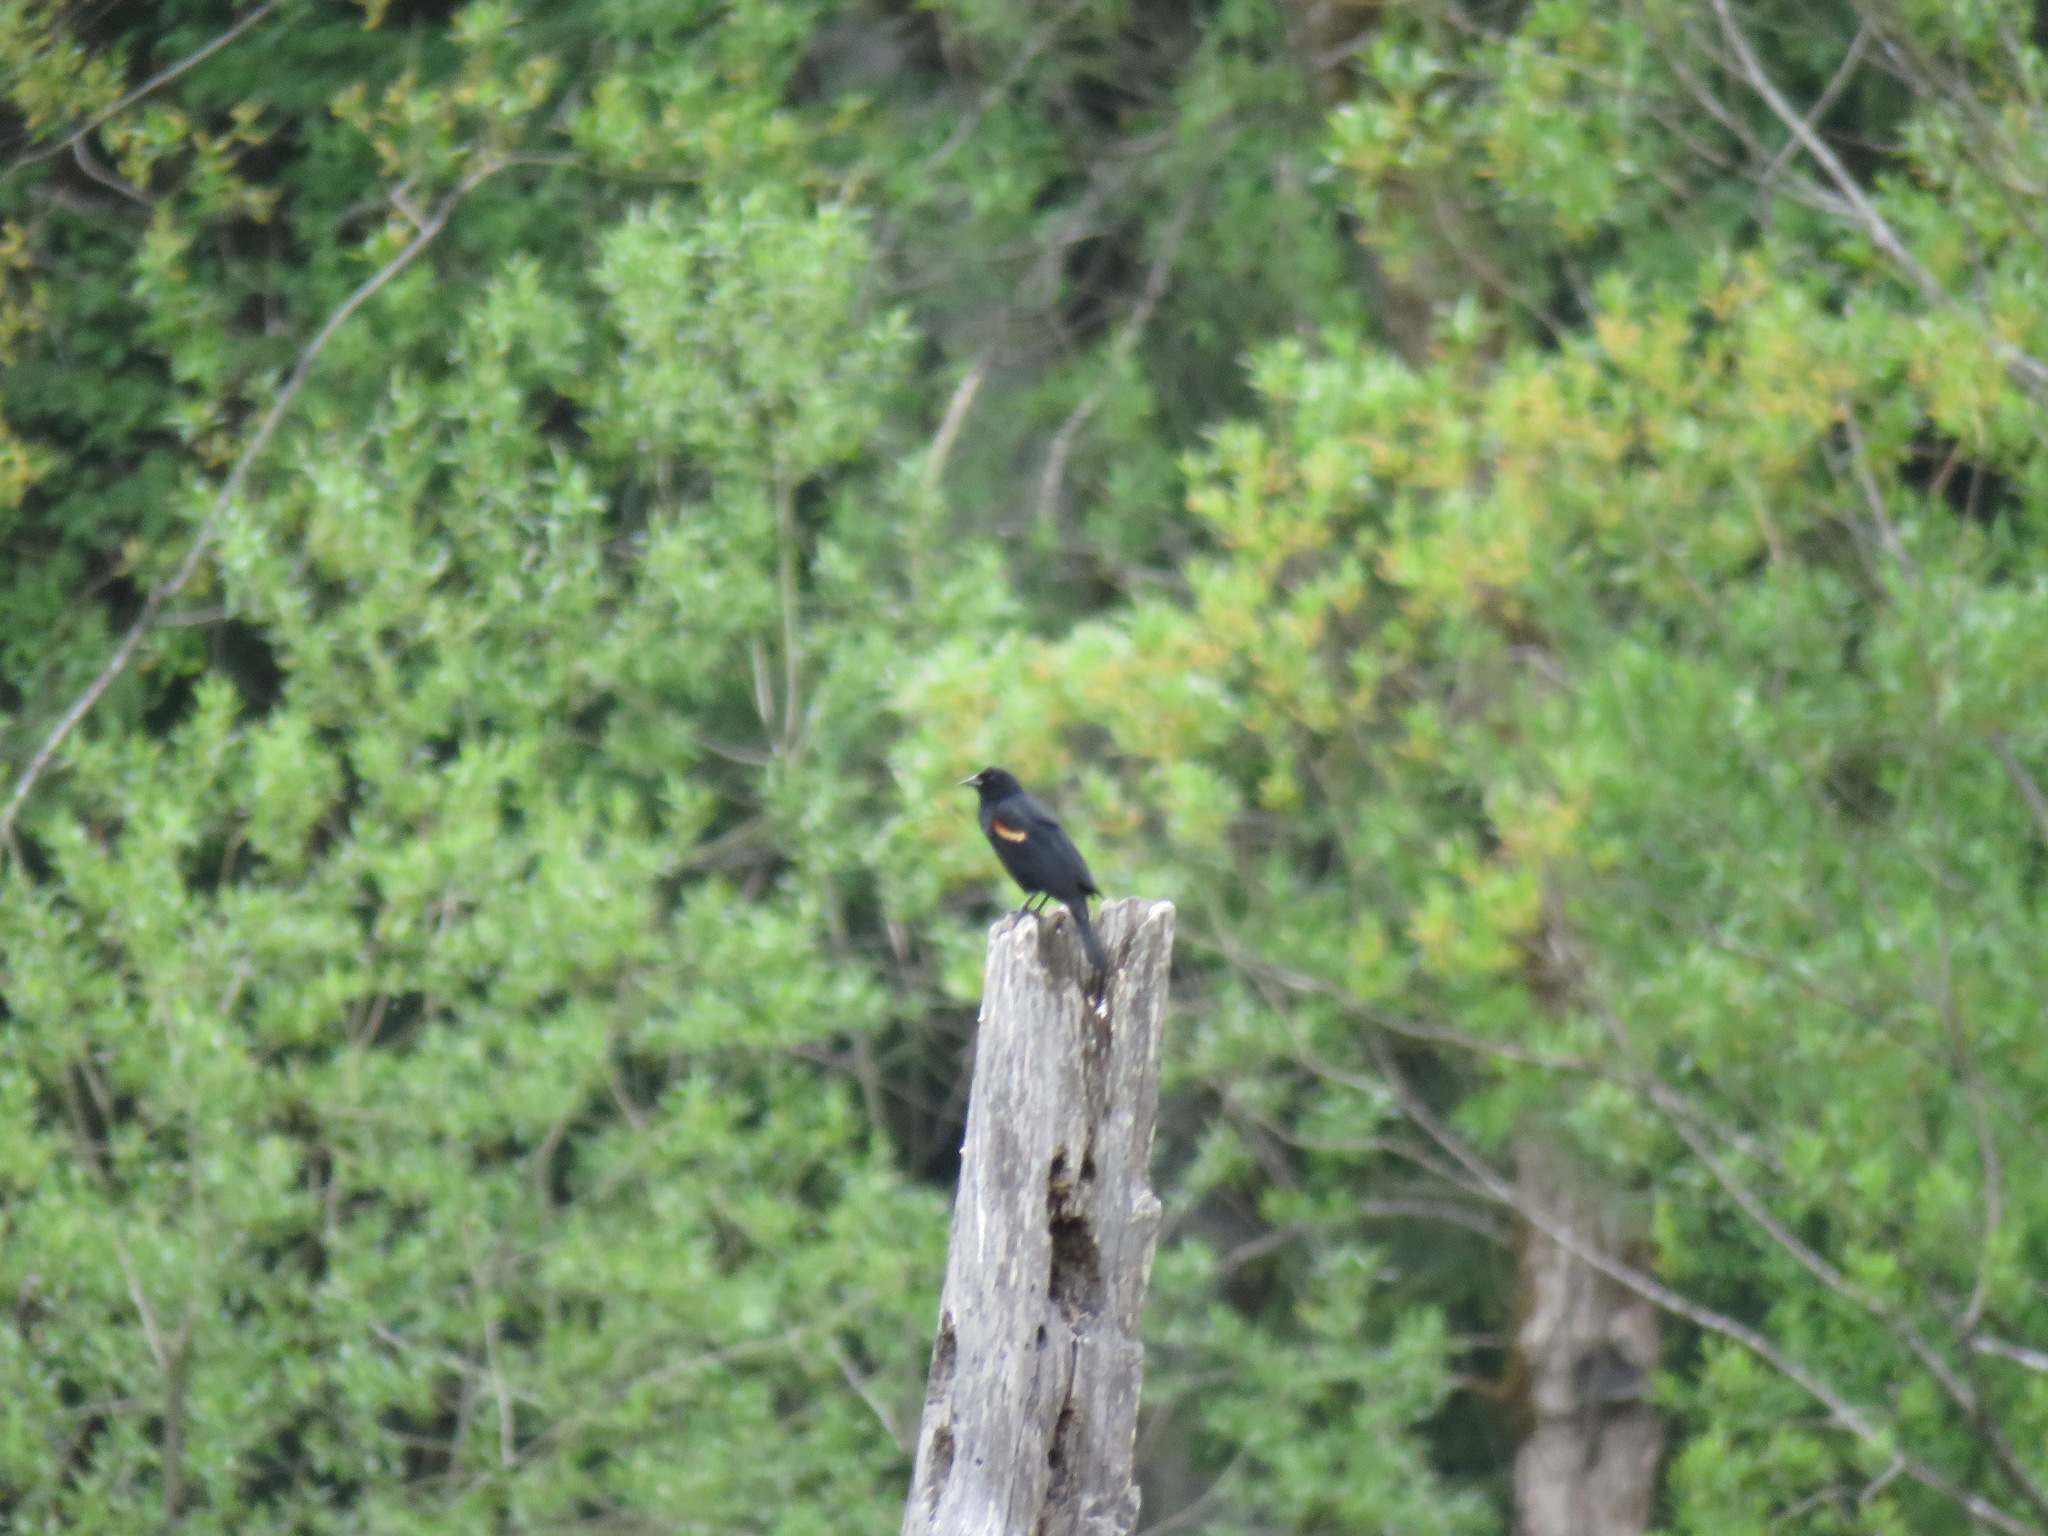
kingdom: Animalia
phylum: Chordata
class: Aves
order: Passeriformes
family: Icteridae
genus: Agelaius
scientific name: Agelaius phoeniceus
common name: Red-winged blackbird
